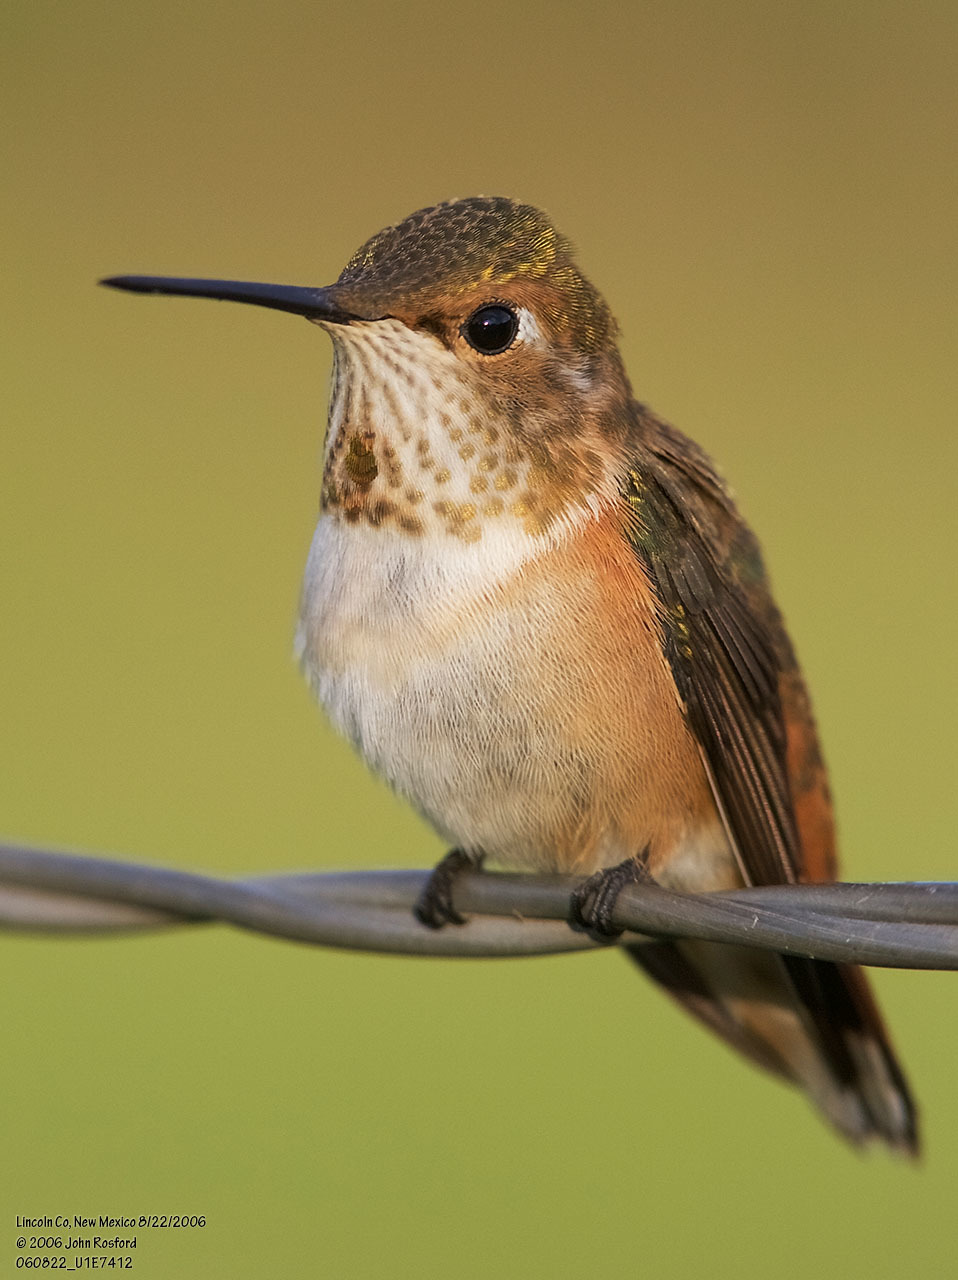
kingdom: Animalia
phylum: Chordata
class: Aves
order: Apodiformes
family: Trochilidae
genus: Selasphorus
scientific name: Selasphorus rufus
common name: Rufous hummingbird
